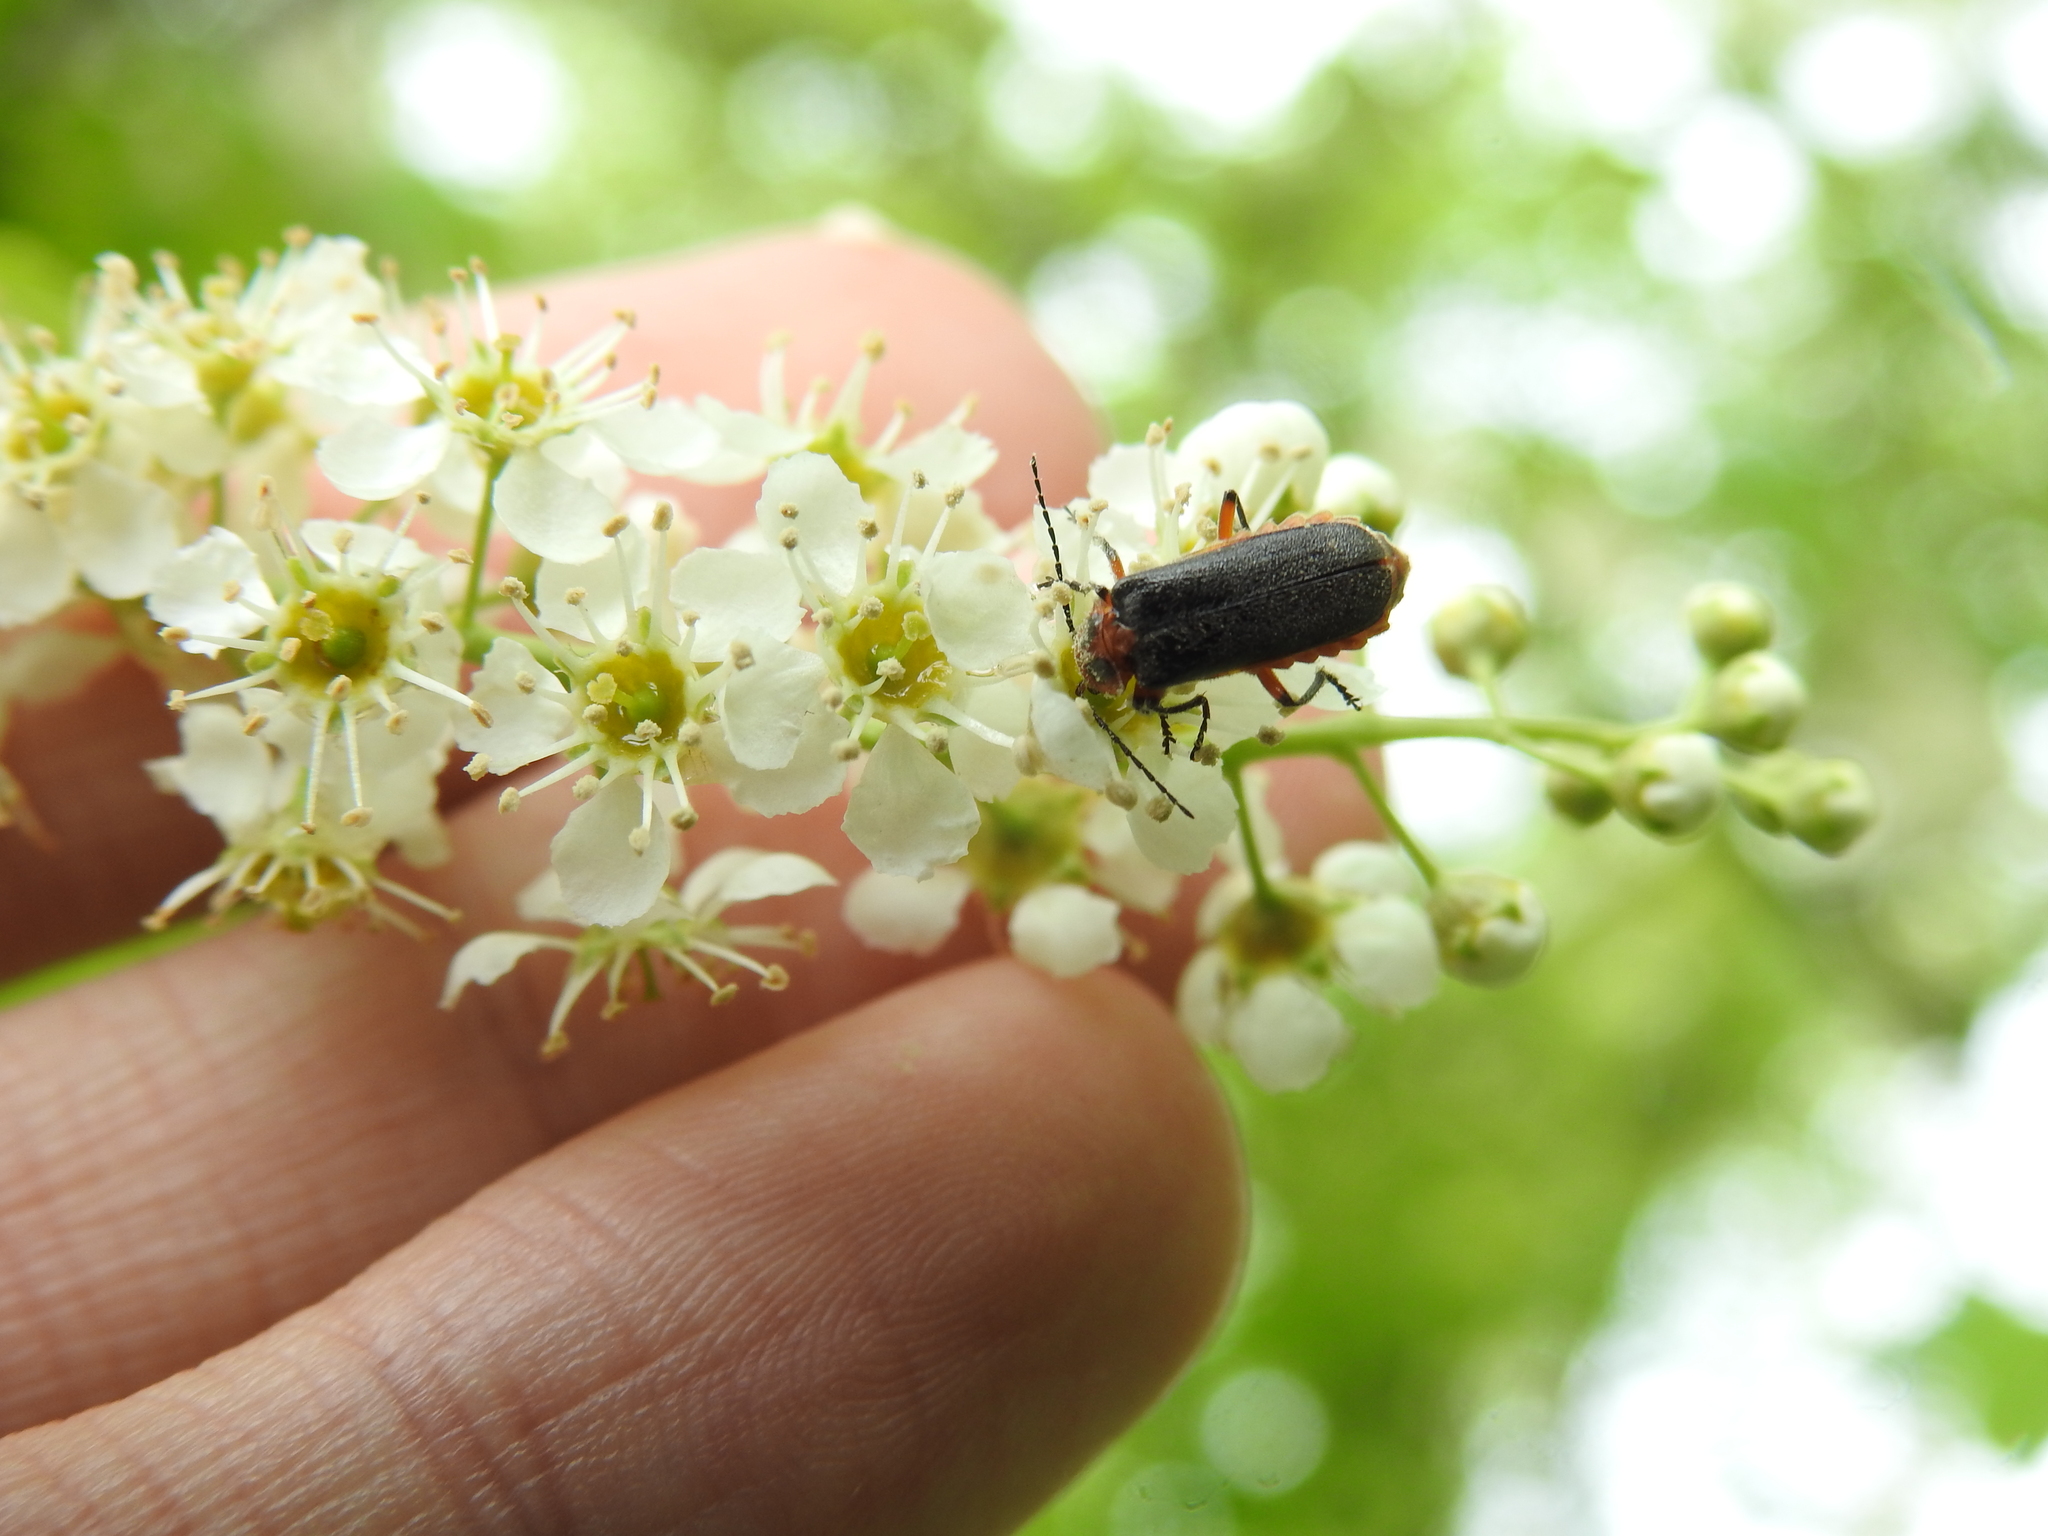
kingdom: Animalia
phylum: Arthropoda
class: Insecta
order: Coleoptera
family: Cantharidae
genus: Atalantycha
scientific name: Atalantycha bilineata
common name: Two-lined leatherwing
